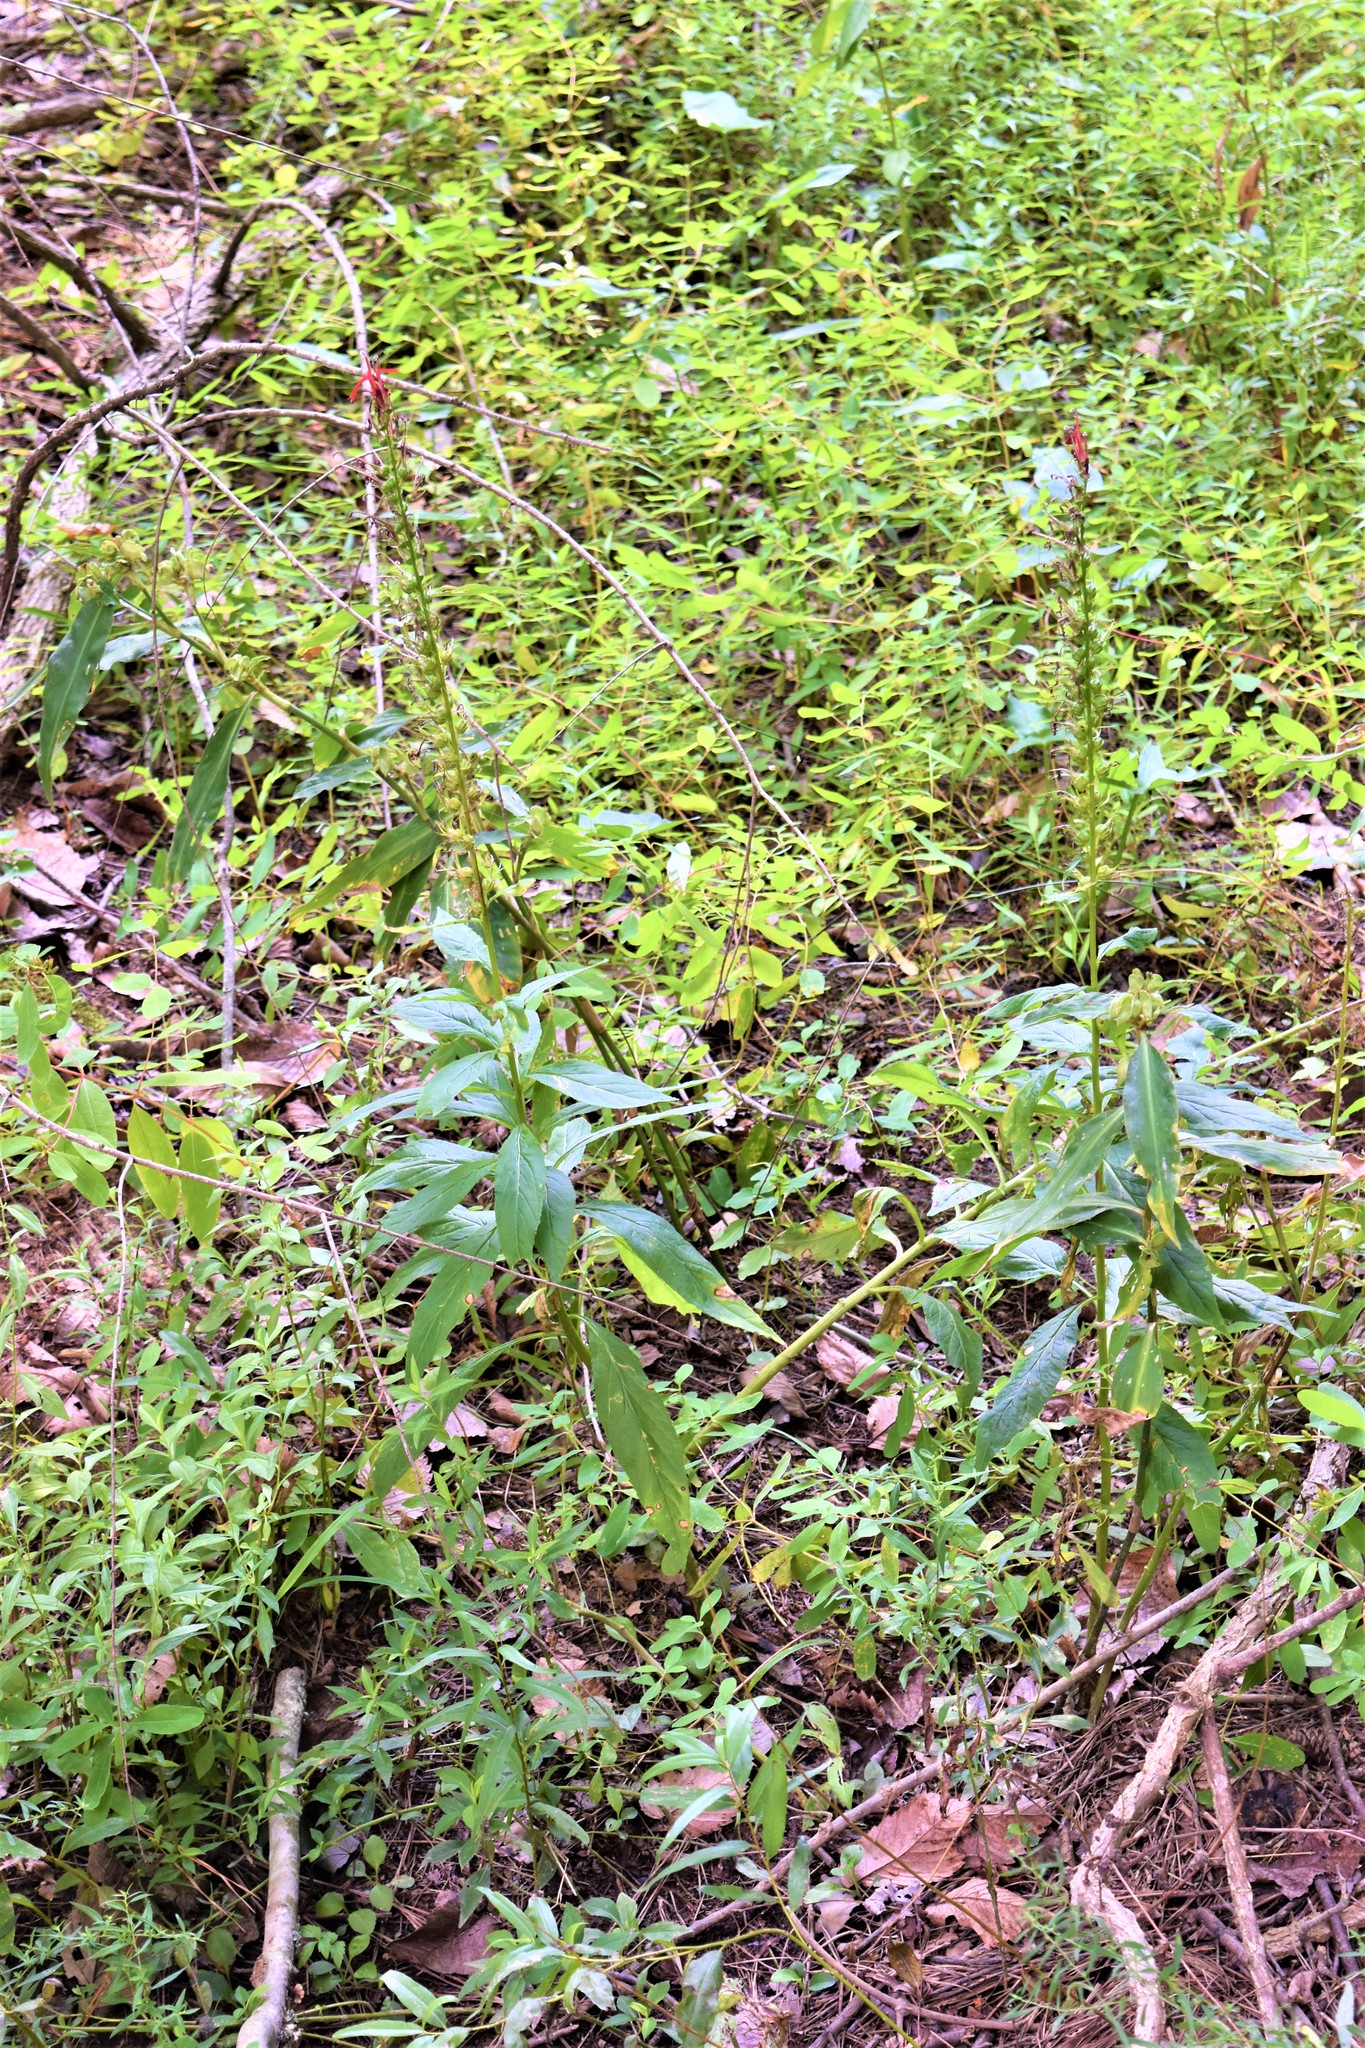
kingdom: Plantae
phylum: Tracheophyta
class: Magnoliopsida
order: Asterales
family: Campanulaceae
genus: Lobelia
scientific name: Lobelia cardinalis
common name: Cardinal flower
